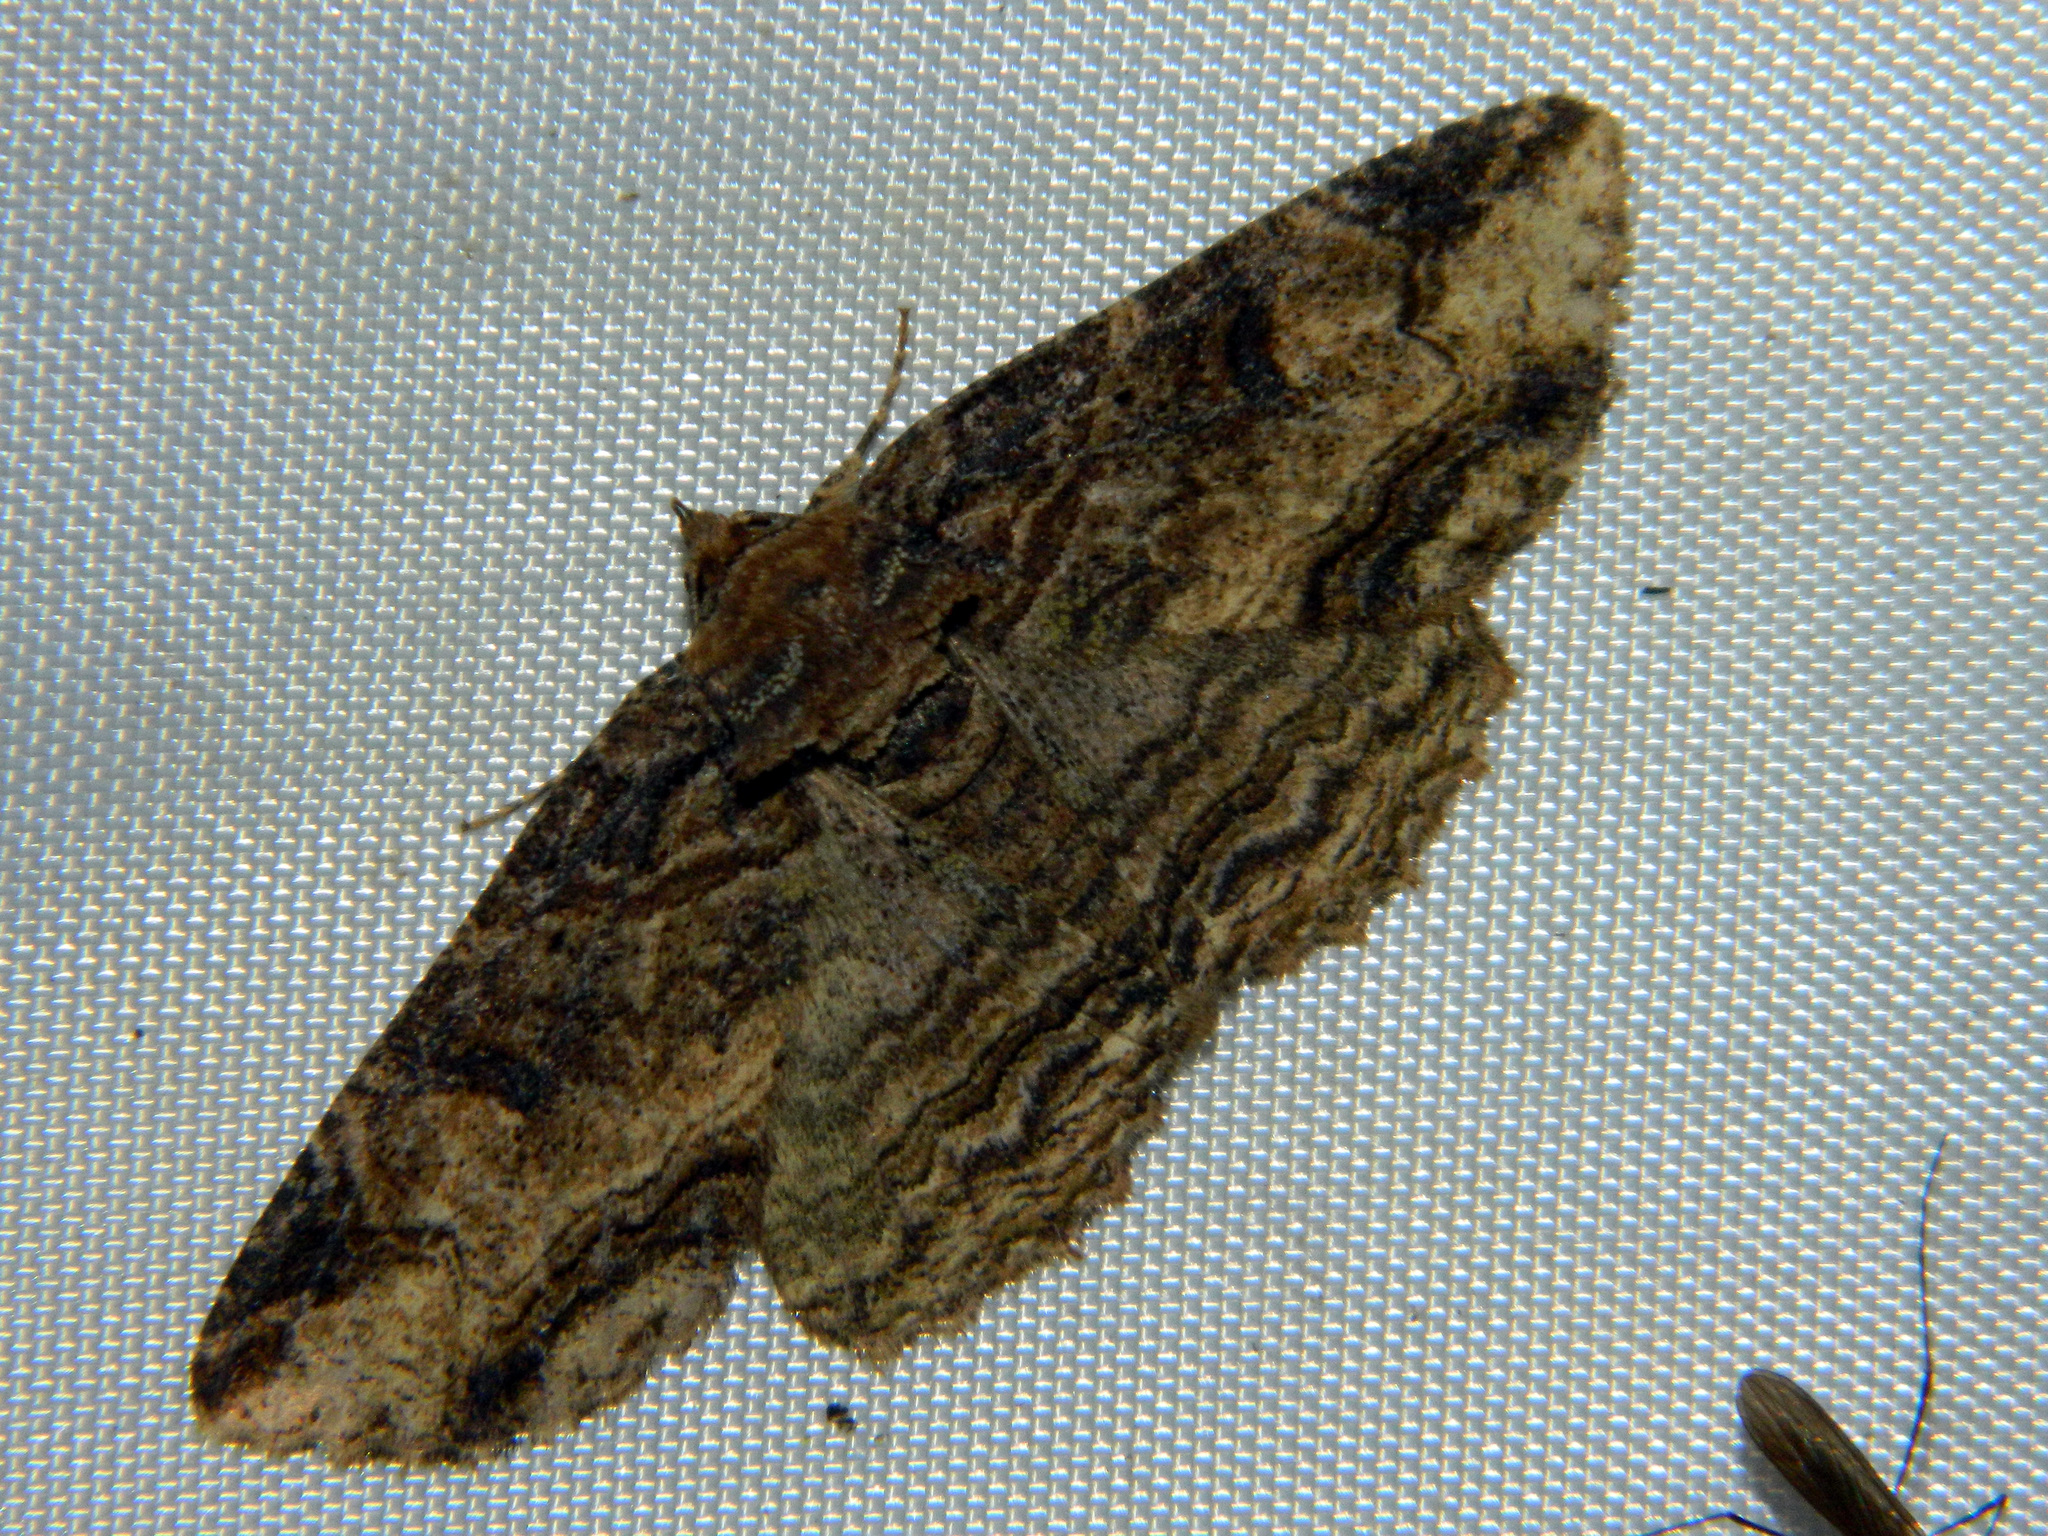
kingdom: Animalia
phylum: Arthropoda
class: Insecta
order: Lepidoptera
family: Erebidae
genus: Zale
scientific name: Zale minerea
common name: Colorful zale moth
